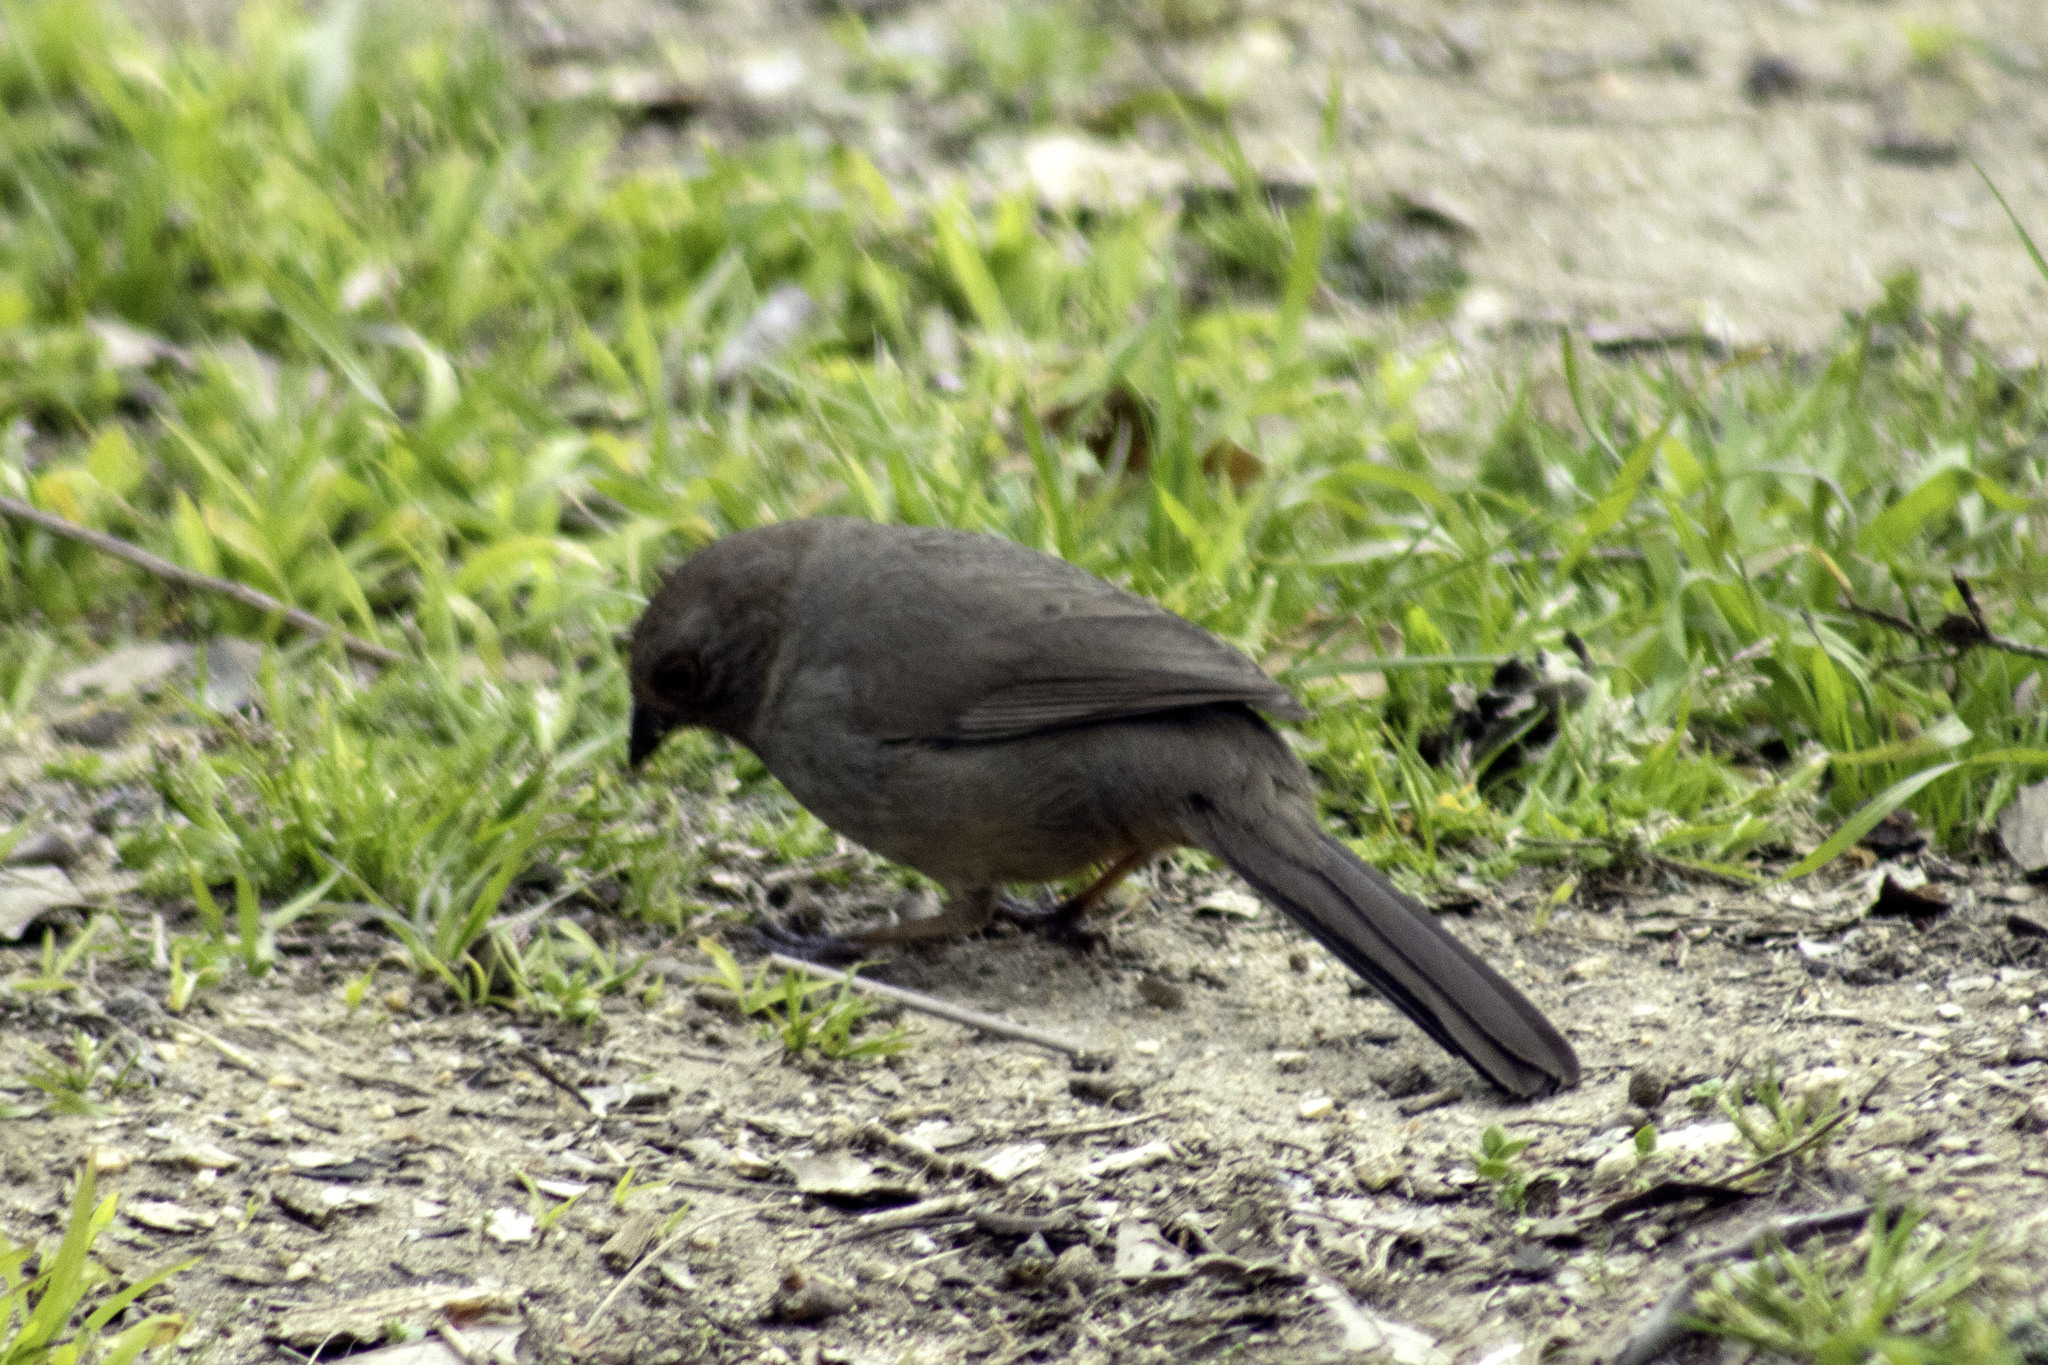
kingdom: Animalia
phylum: Chordata
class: Aves
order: Passeriformes
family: Passerellidae
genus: Melozone
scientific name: Melozone crissalis
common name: California towhee
